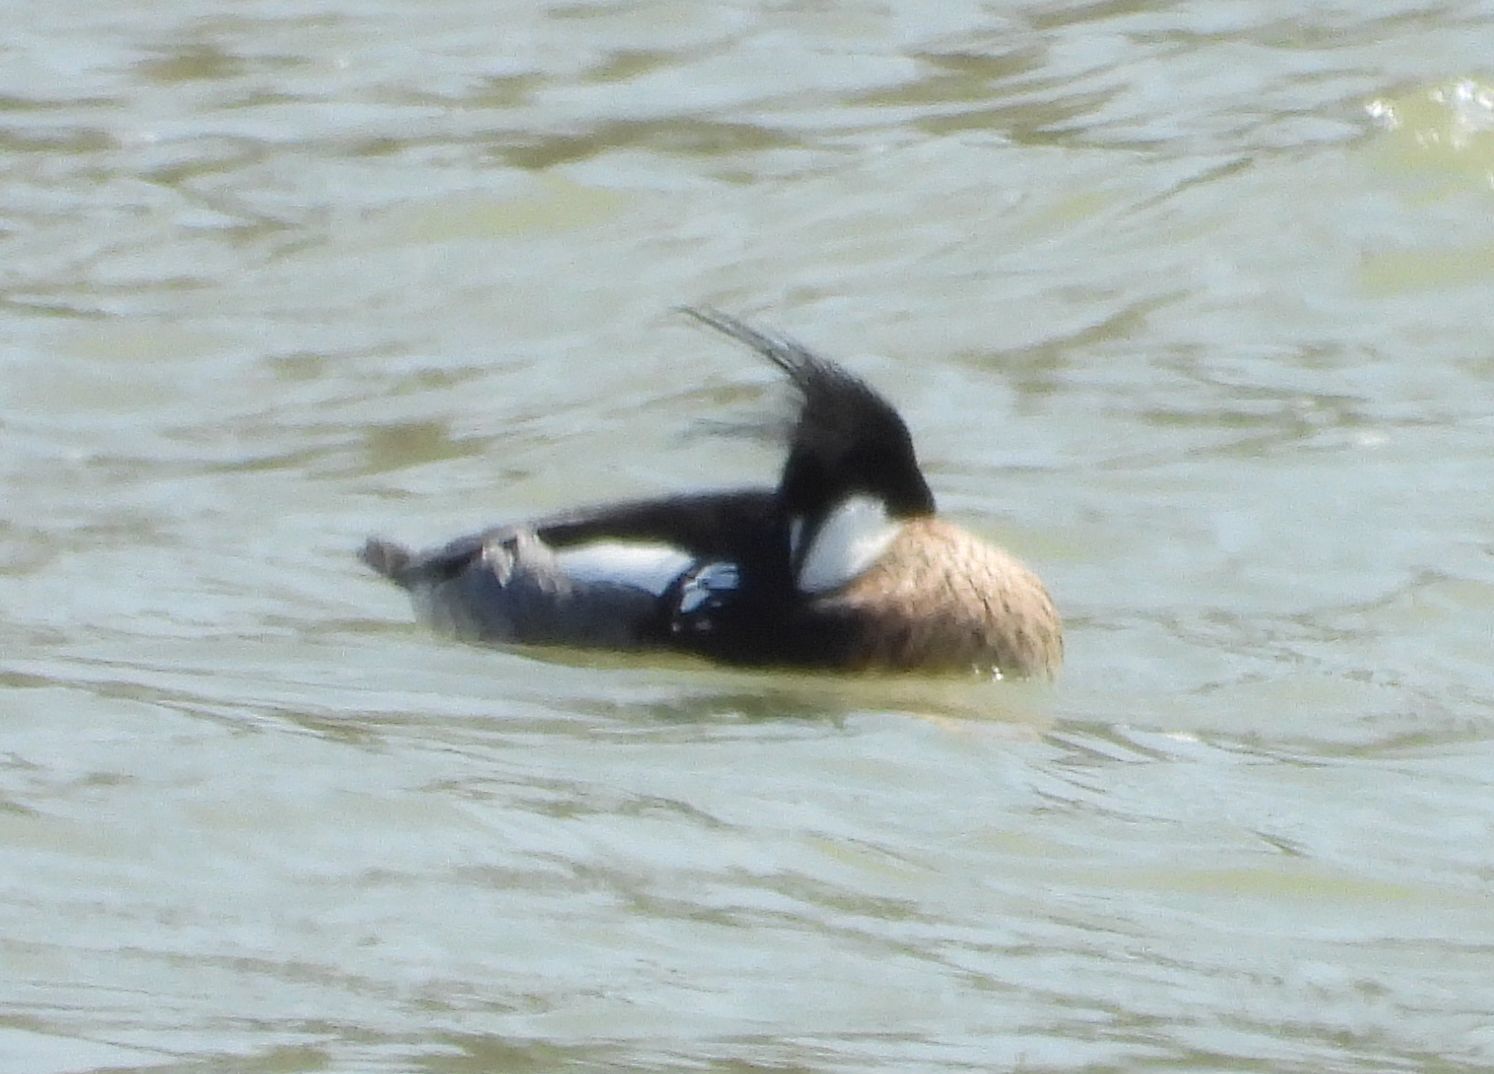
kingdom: Animalia
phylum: Chordata
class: Aves
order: Anseriformes
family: Anatidae
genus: Mergus
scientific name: Mergus serrator
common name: Red-breasted merganser
